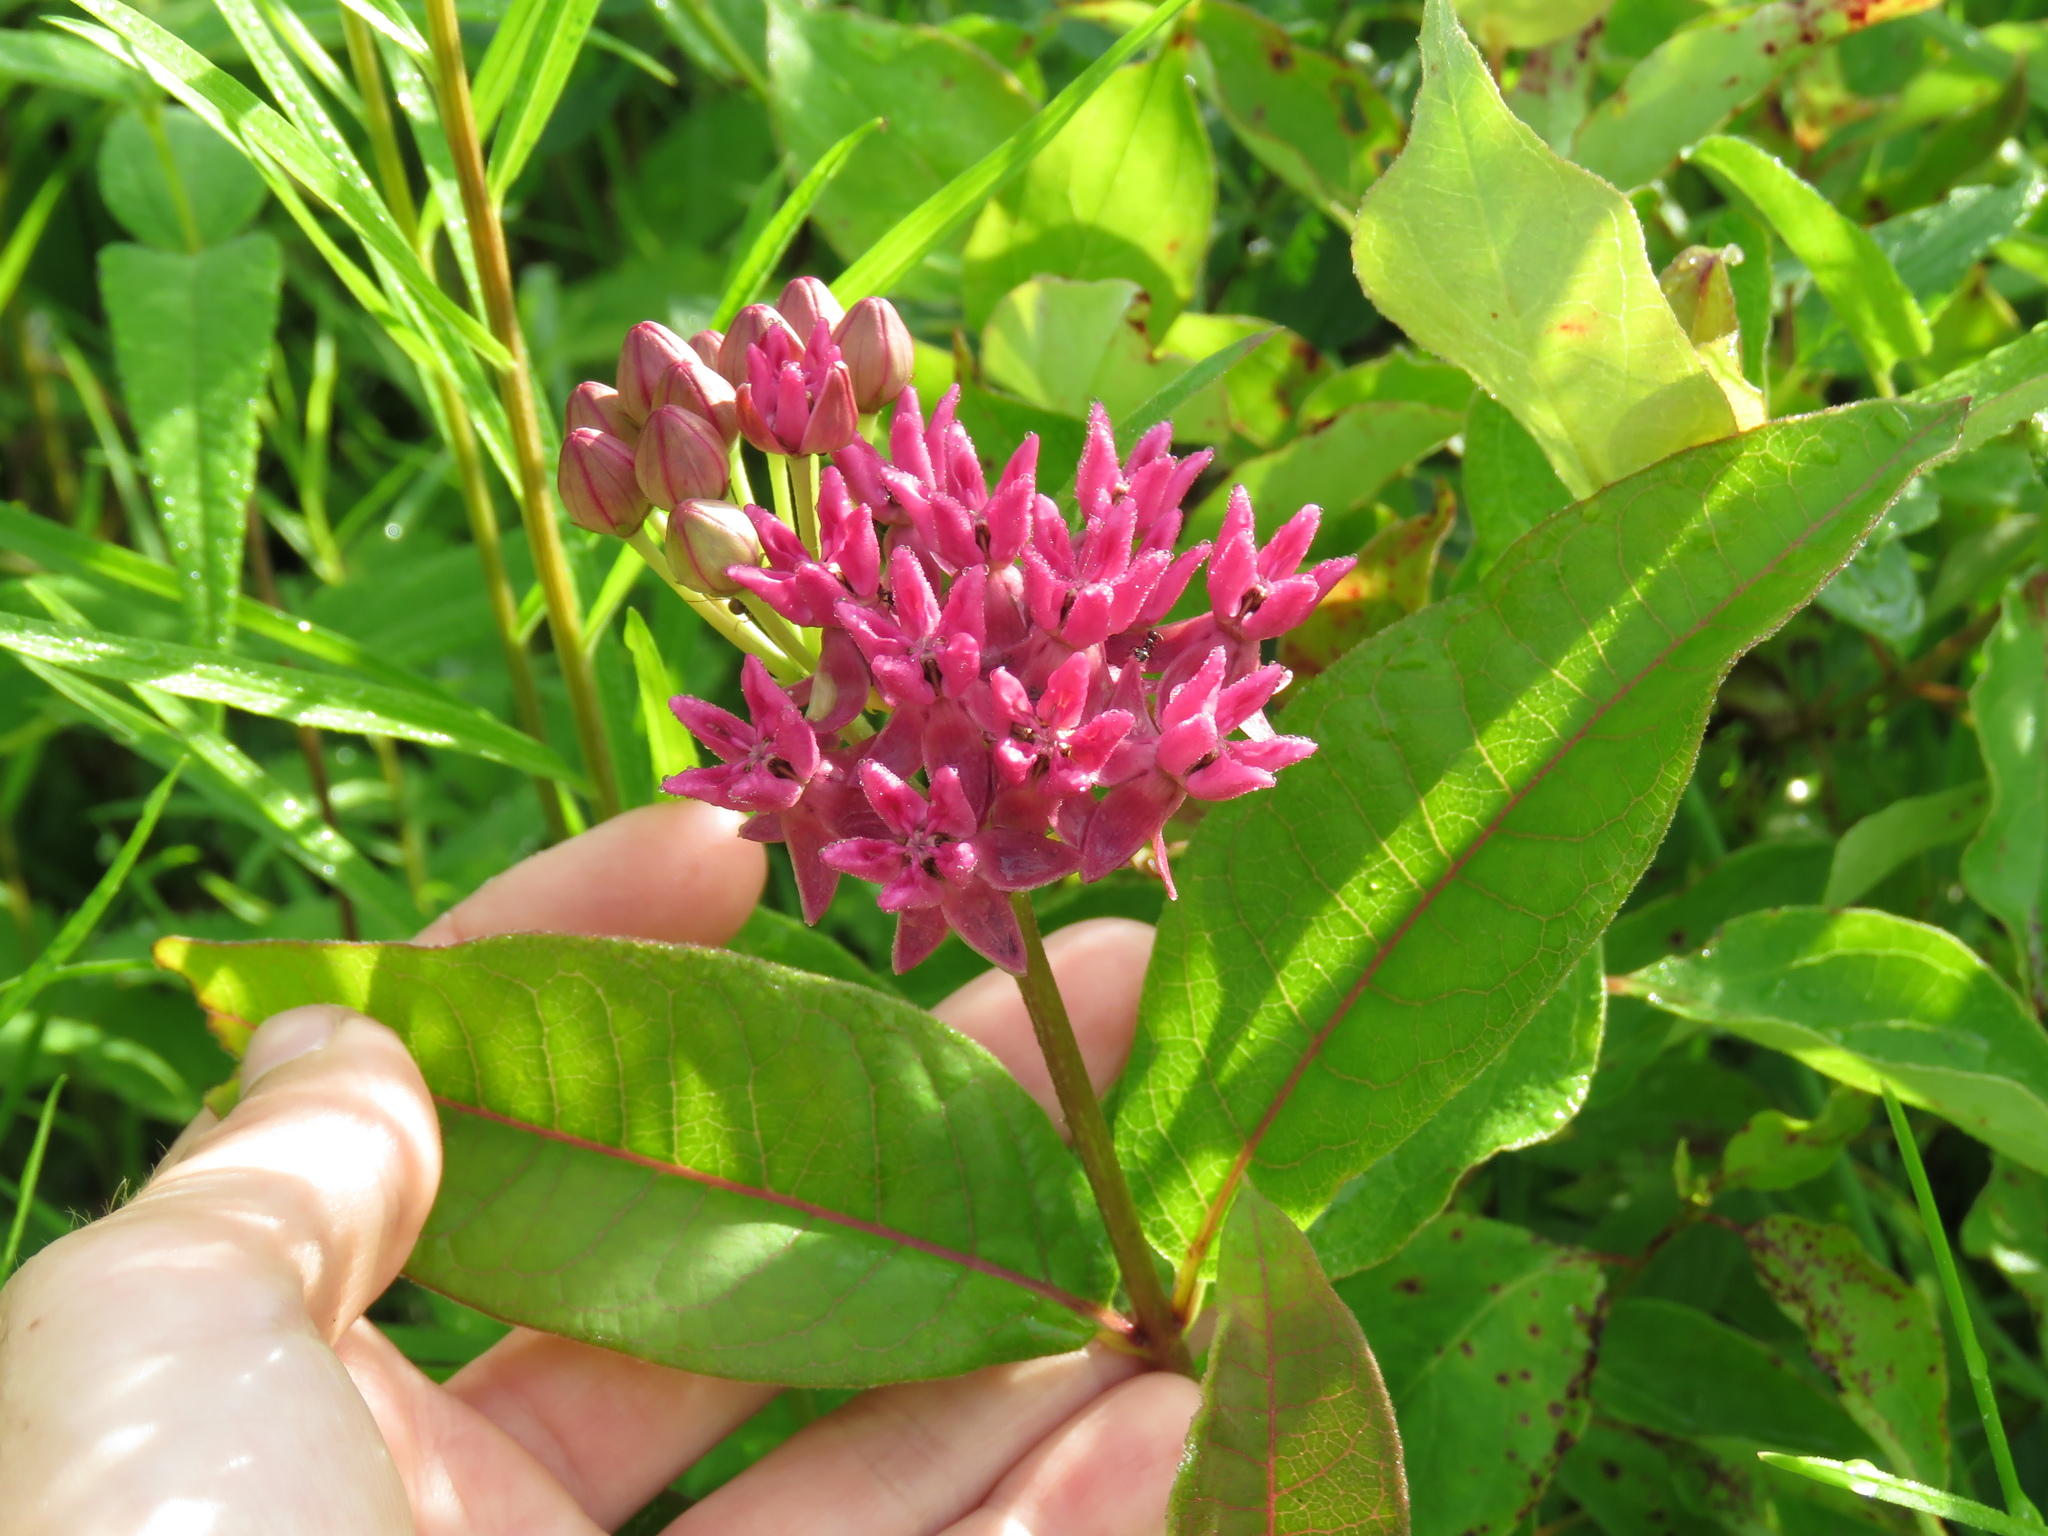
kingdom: Plantae
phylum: Tracheophyta
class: Magnoliopsida
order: Gentianales
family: Apocynaceae
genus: Asclepias
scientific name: Asclepias purpurascens
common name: Purple milkweed
